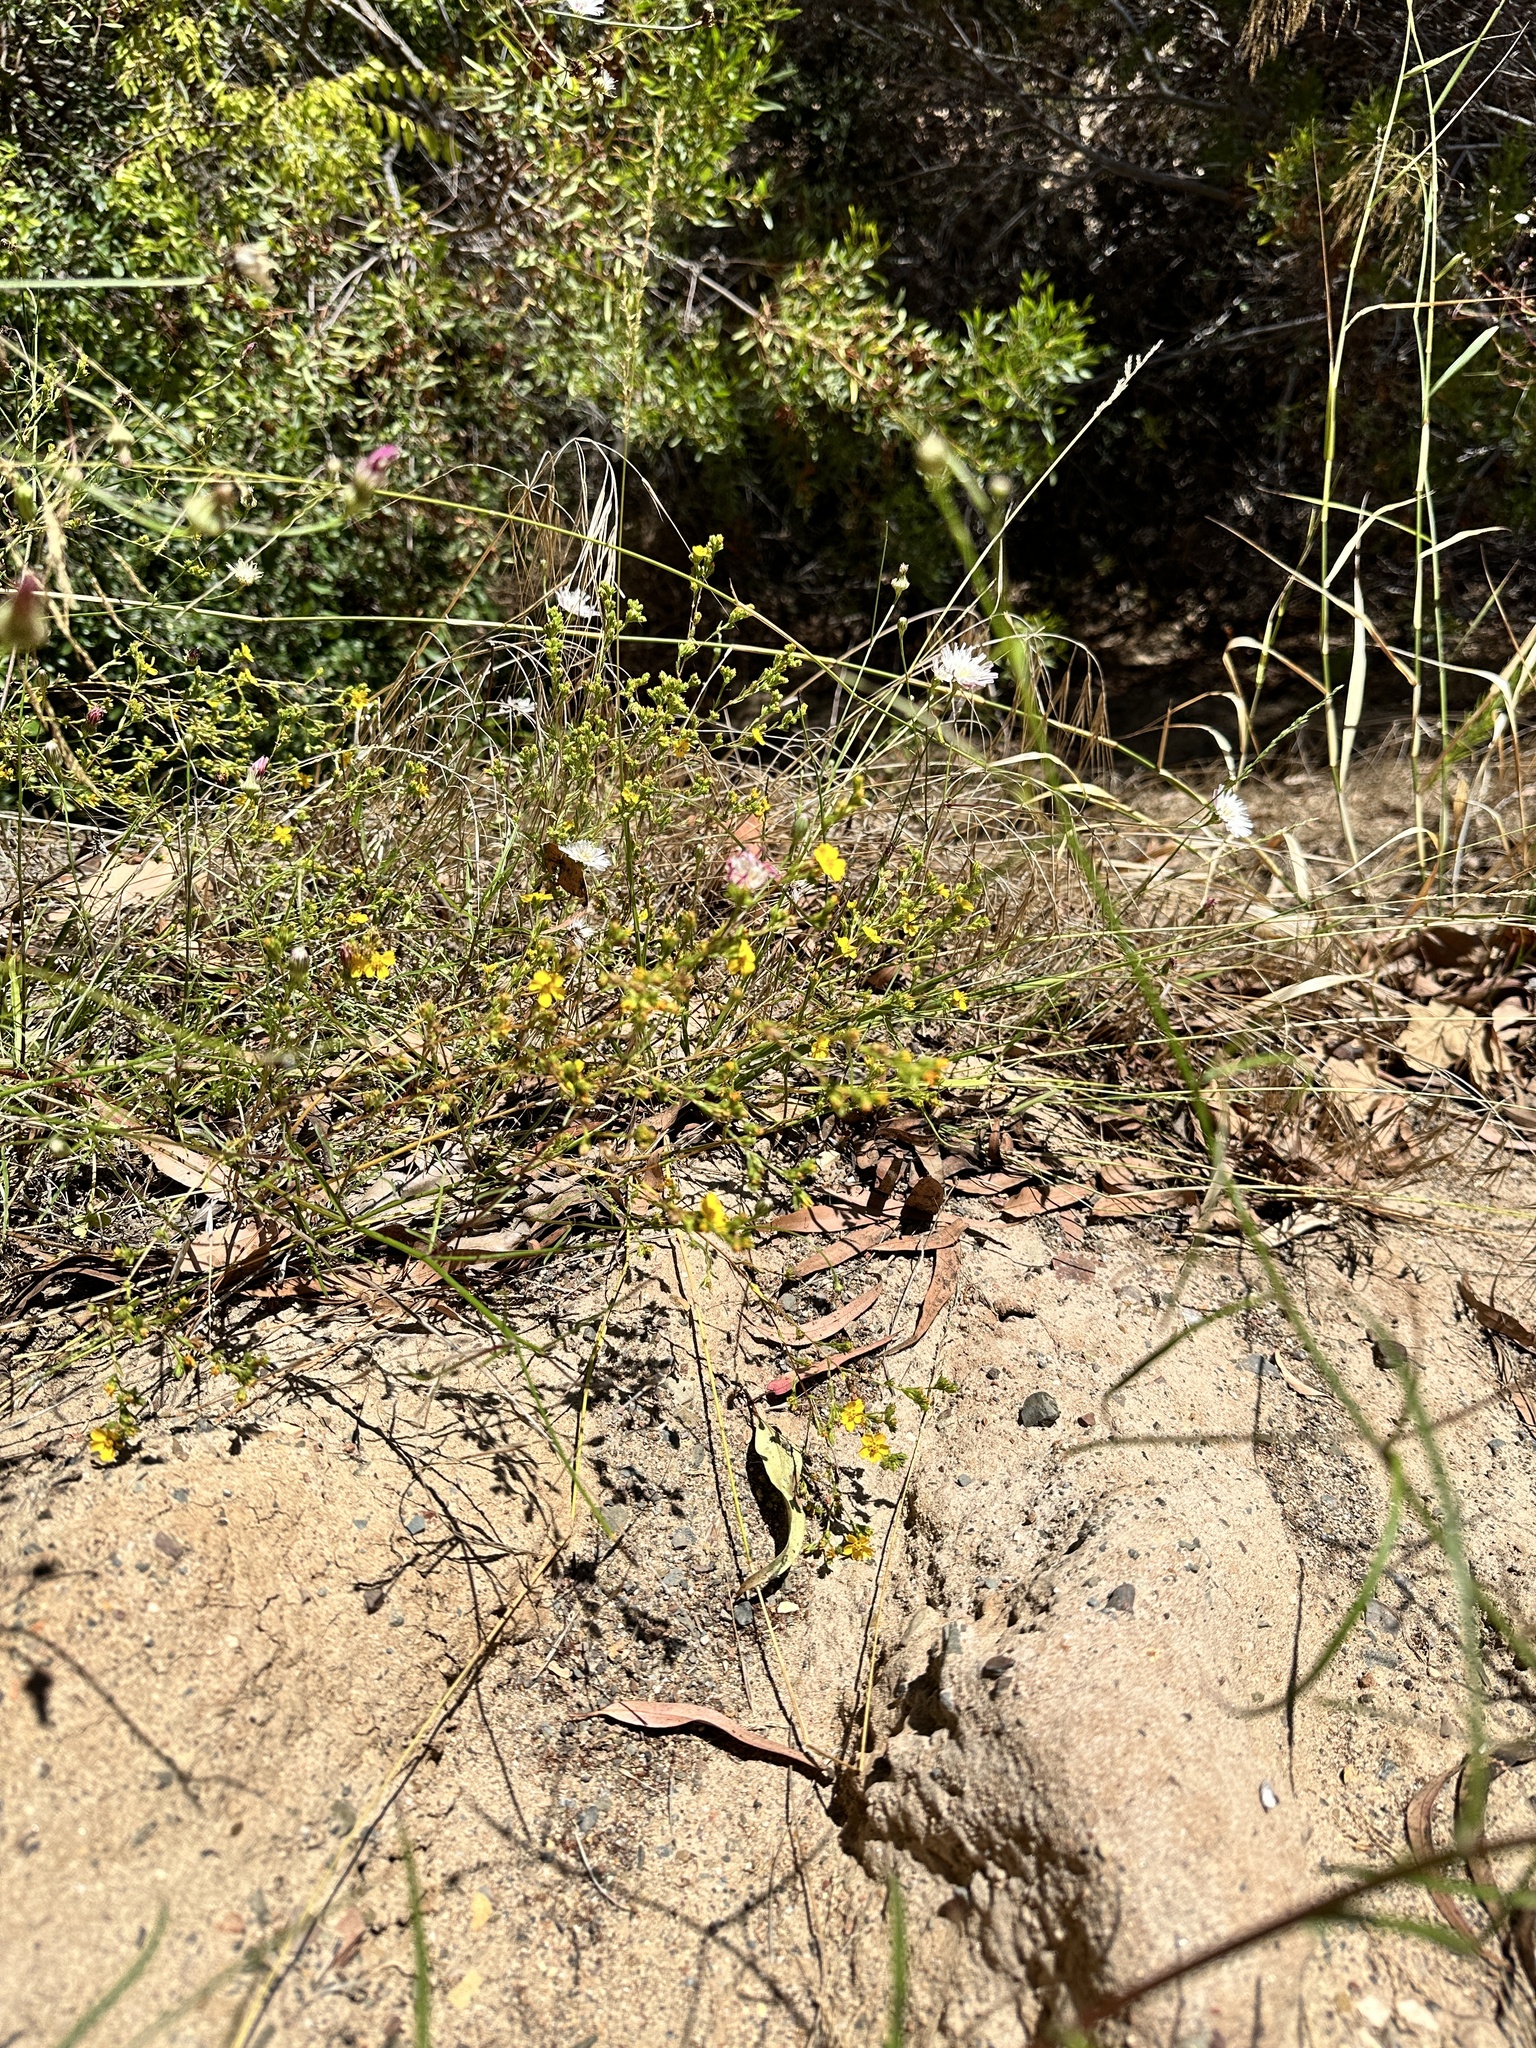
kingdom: Plantae
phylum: Tracheophyta
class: Magnoliopsida
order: Asterales
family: Asteraceae
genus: Deinandra
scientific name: Deinandra fasciculata
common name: Clustered tarweed
